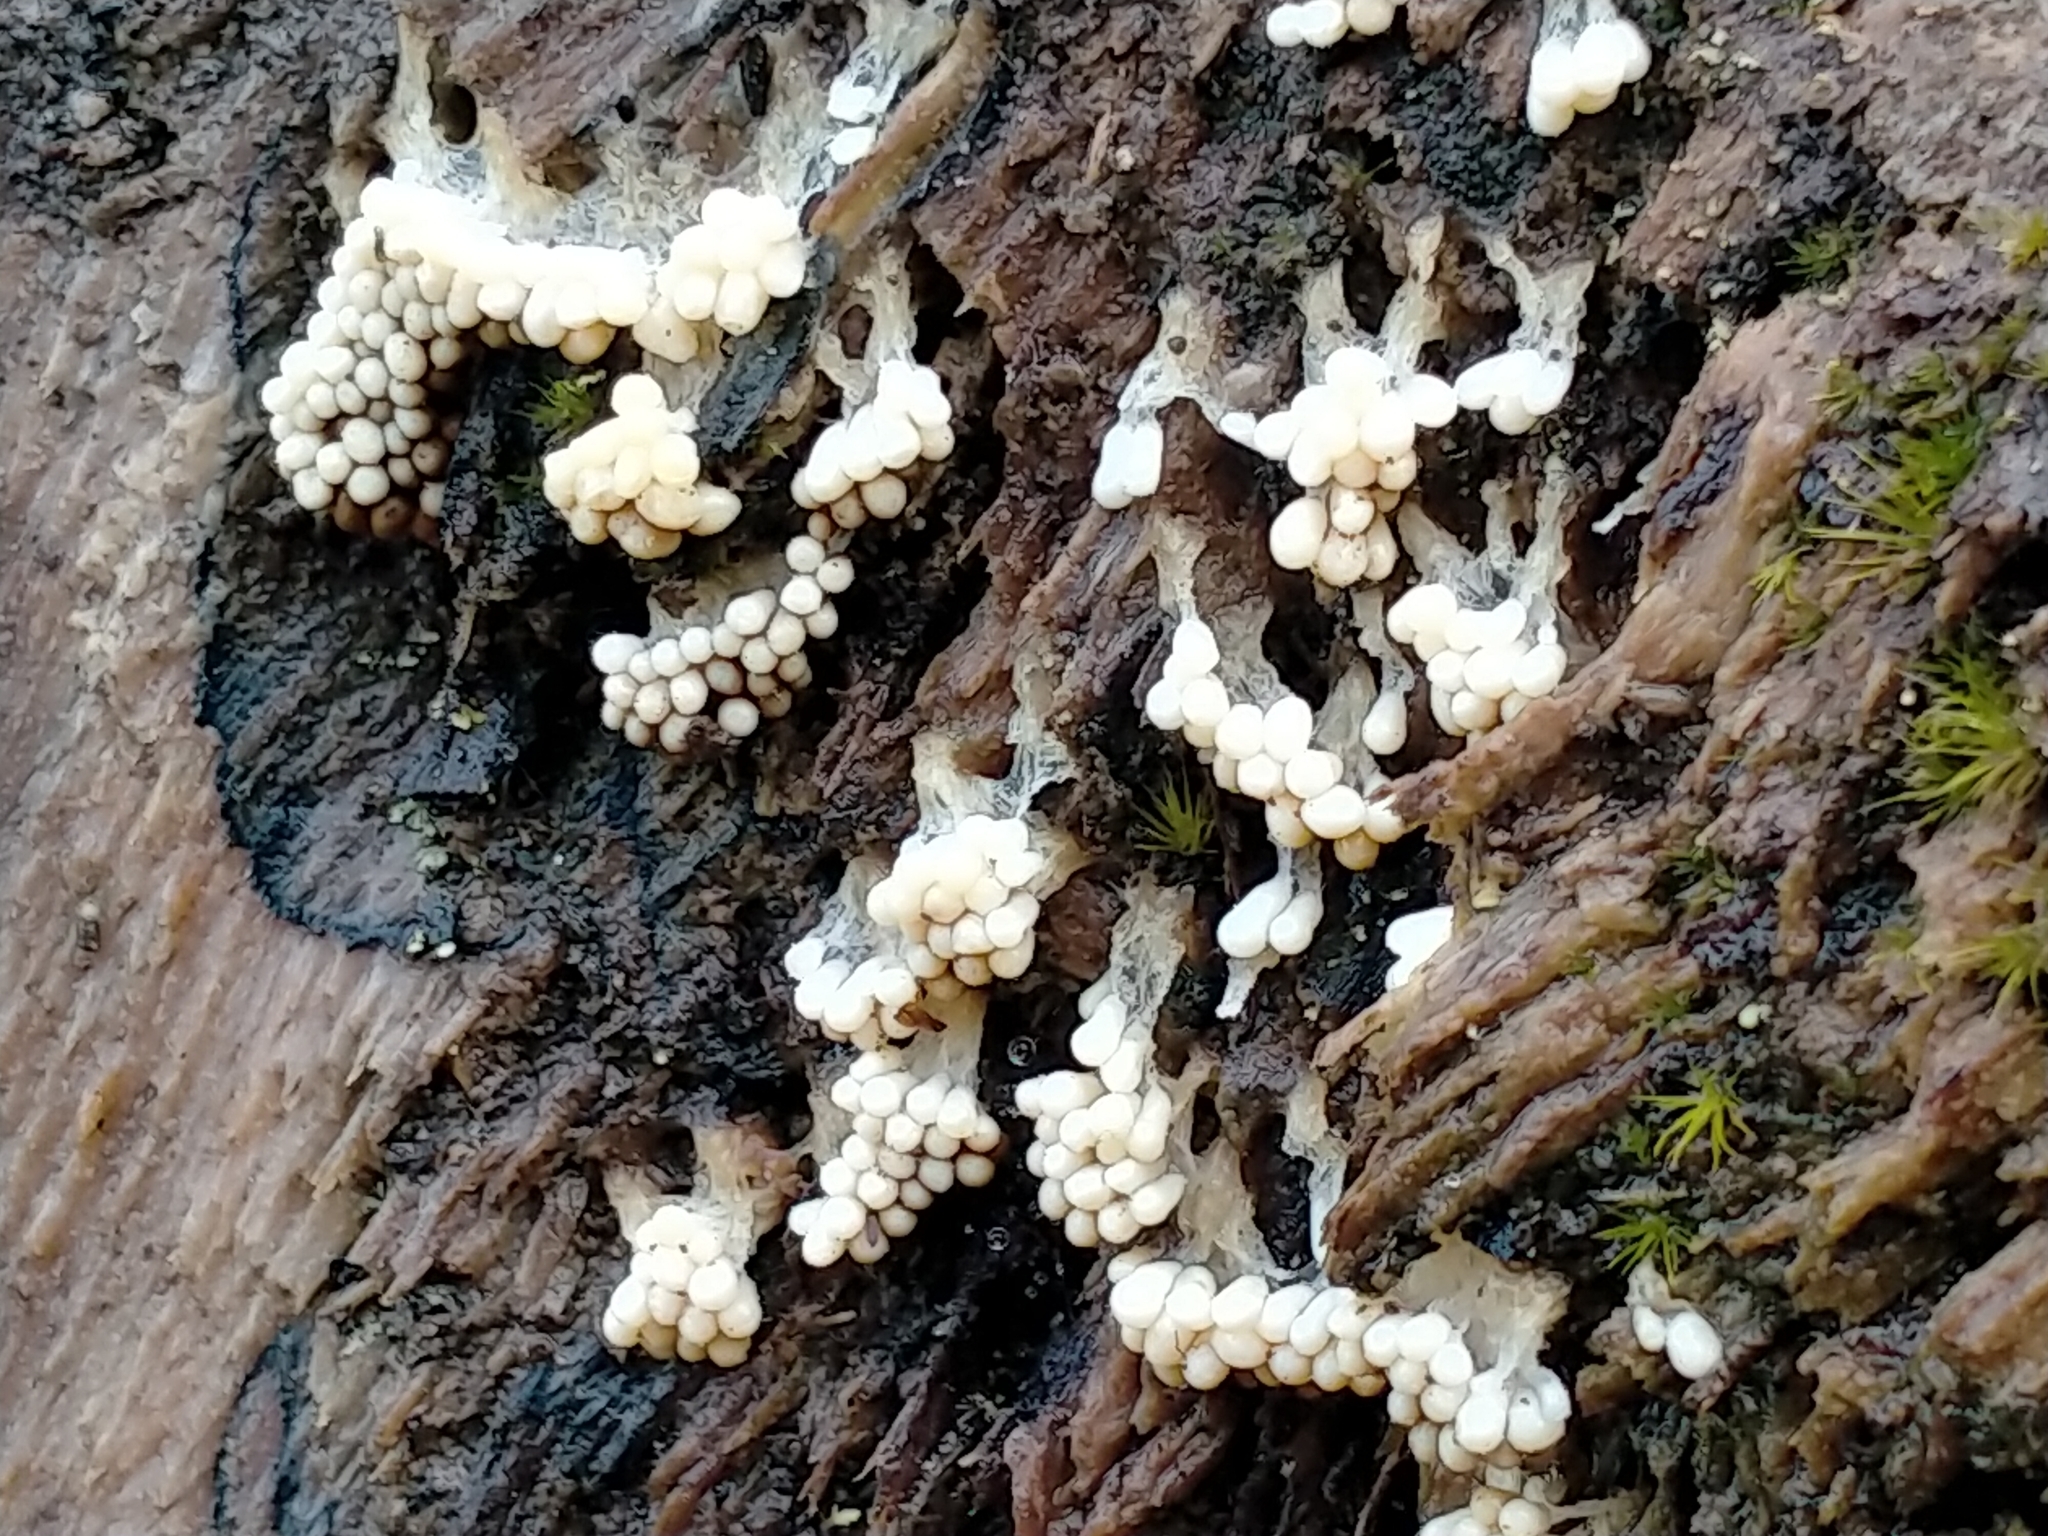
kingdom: Protozoa
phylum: Mycetozoa
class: Myxomycetes
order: Trichiales
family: Trichiaceae
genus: Oligonema
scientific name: Oligonema verrucosum
